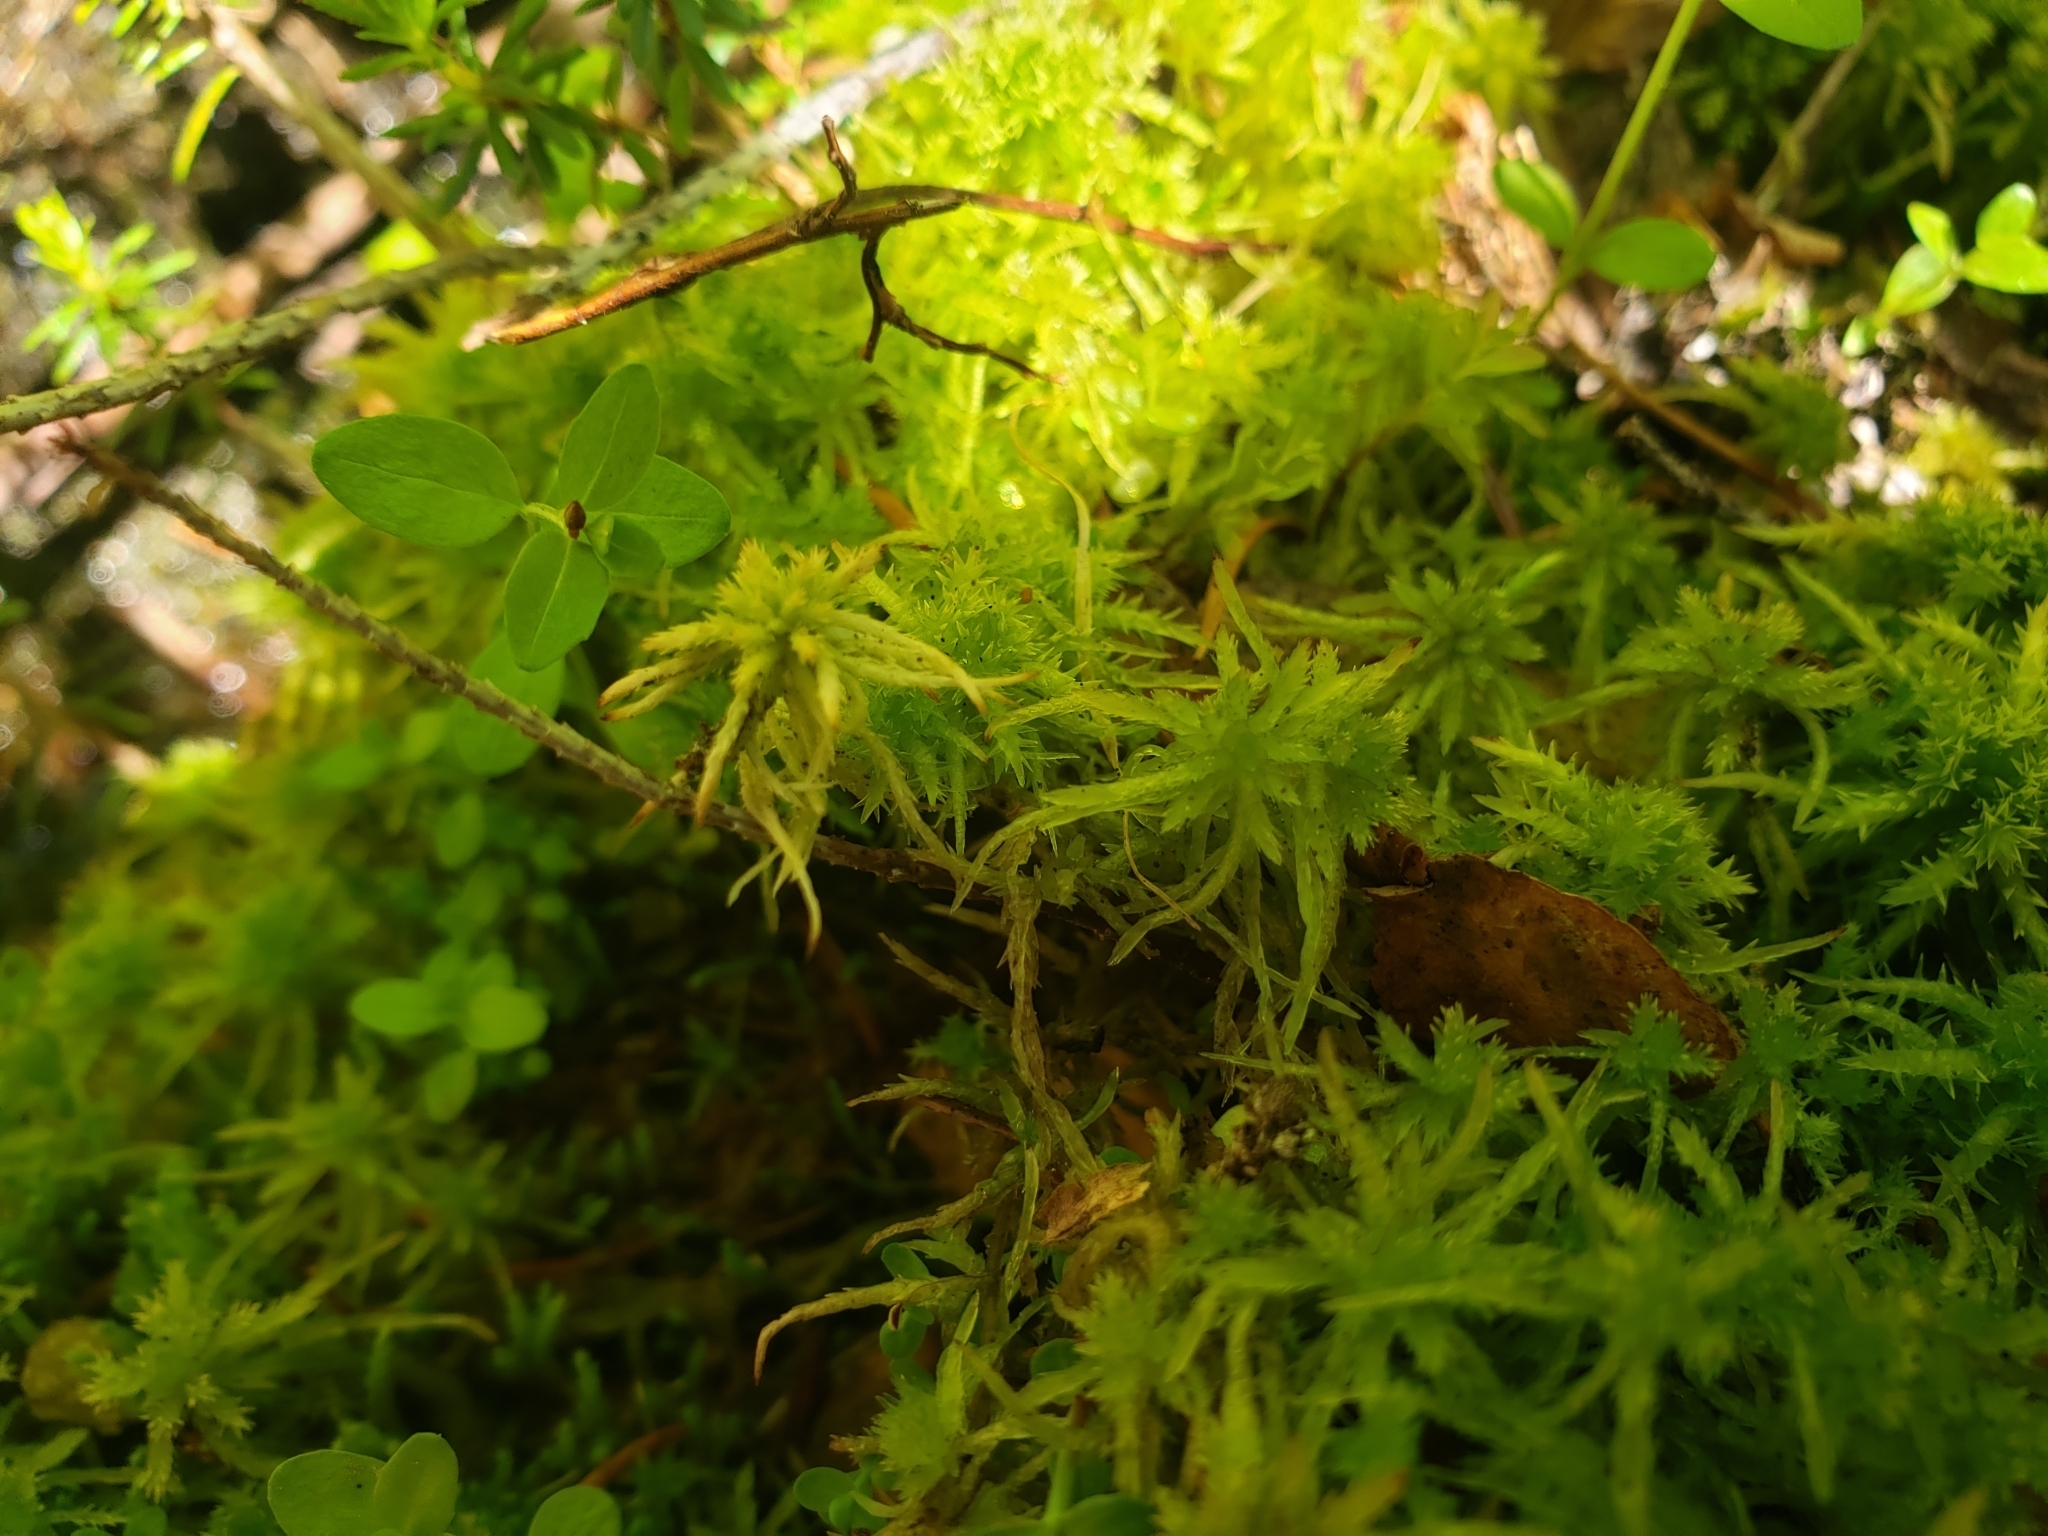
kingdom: Plantae
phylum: Bryophyta
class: Sphagnopsida
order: Sphagnales
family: Sphagnaceae
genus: Sphagnum
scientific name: Sphagnum squarrosum
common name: Shaggy peat moss
